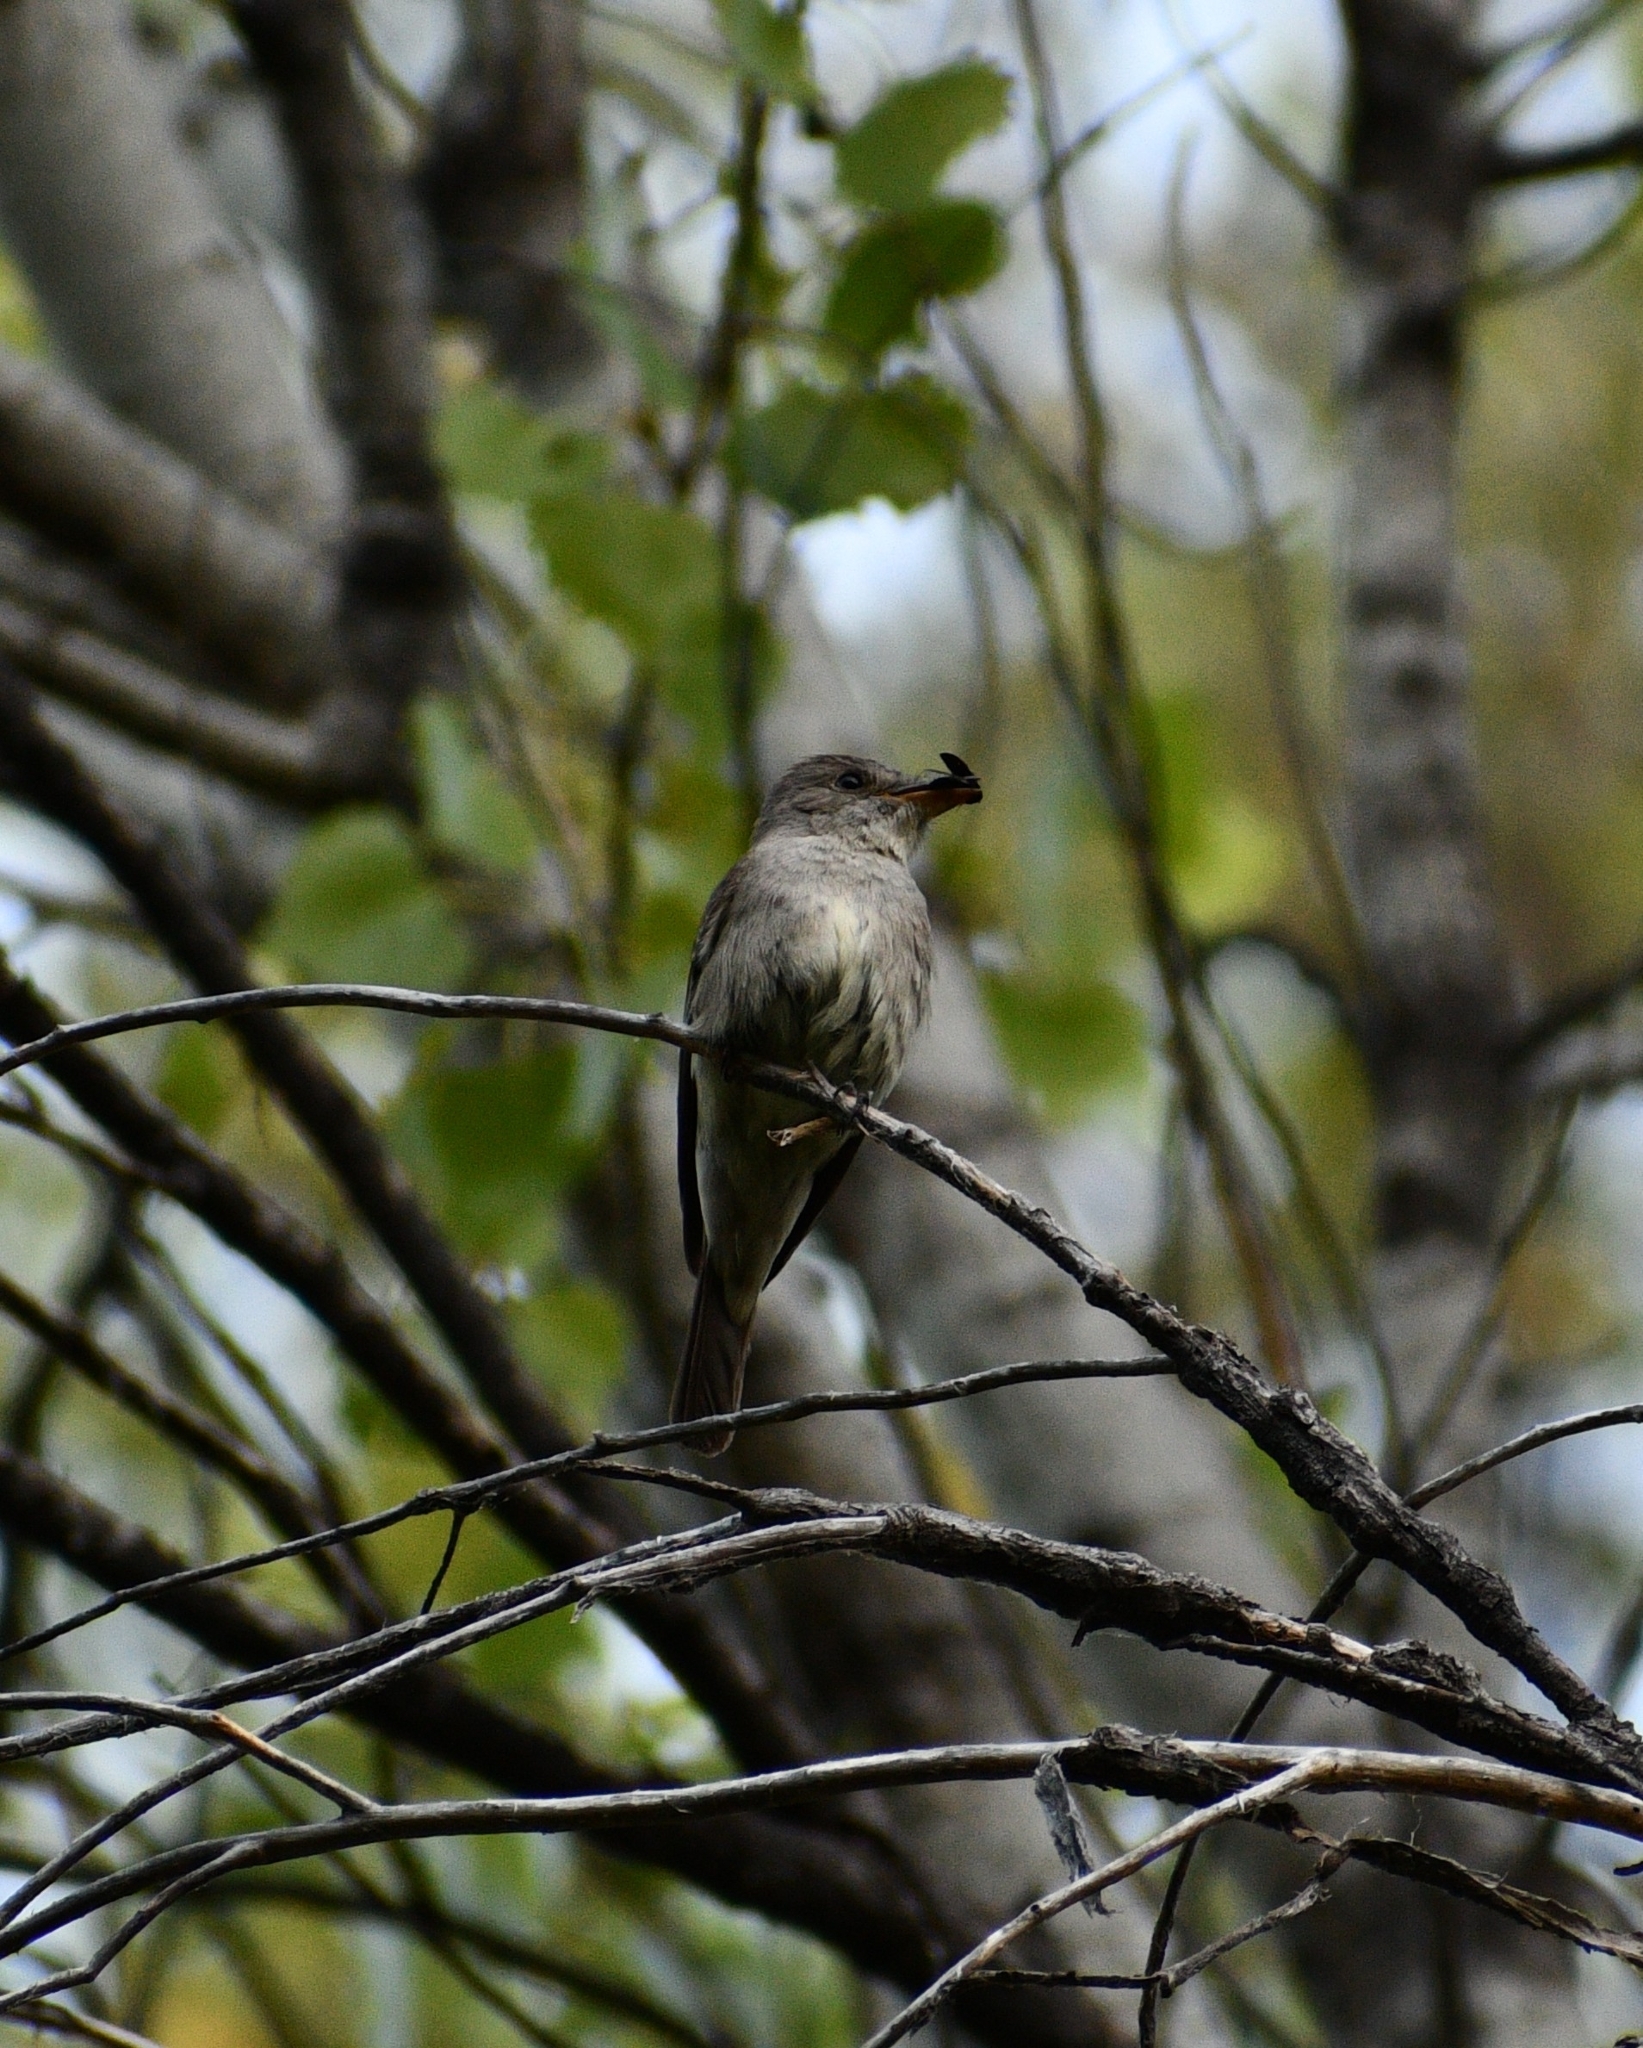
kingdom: Animalia
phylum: Chordata
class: Aves
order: Passeriformes
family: Tyrannidae
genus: Contopus
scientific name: Contopus sordidulus
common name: Western wood-pewee
